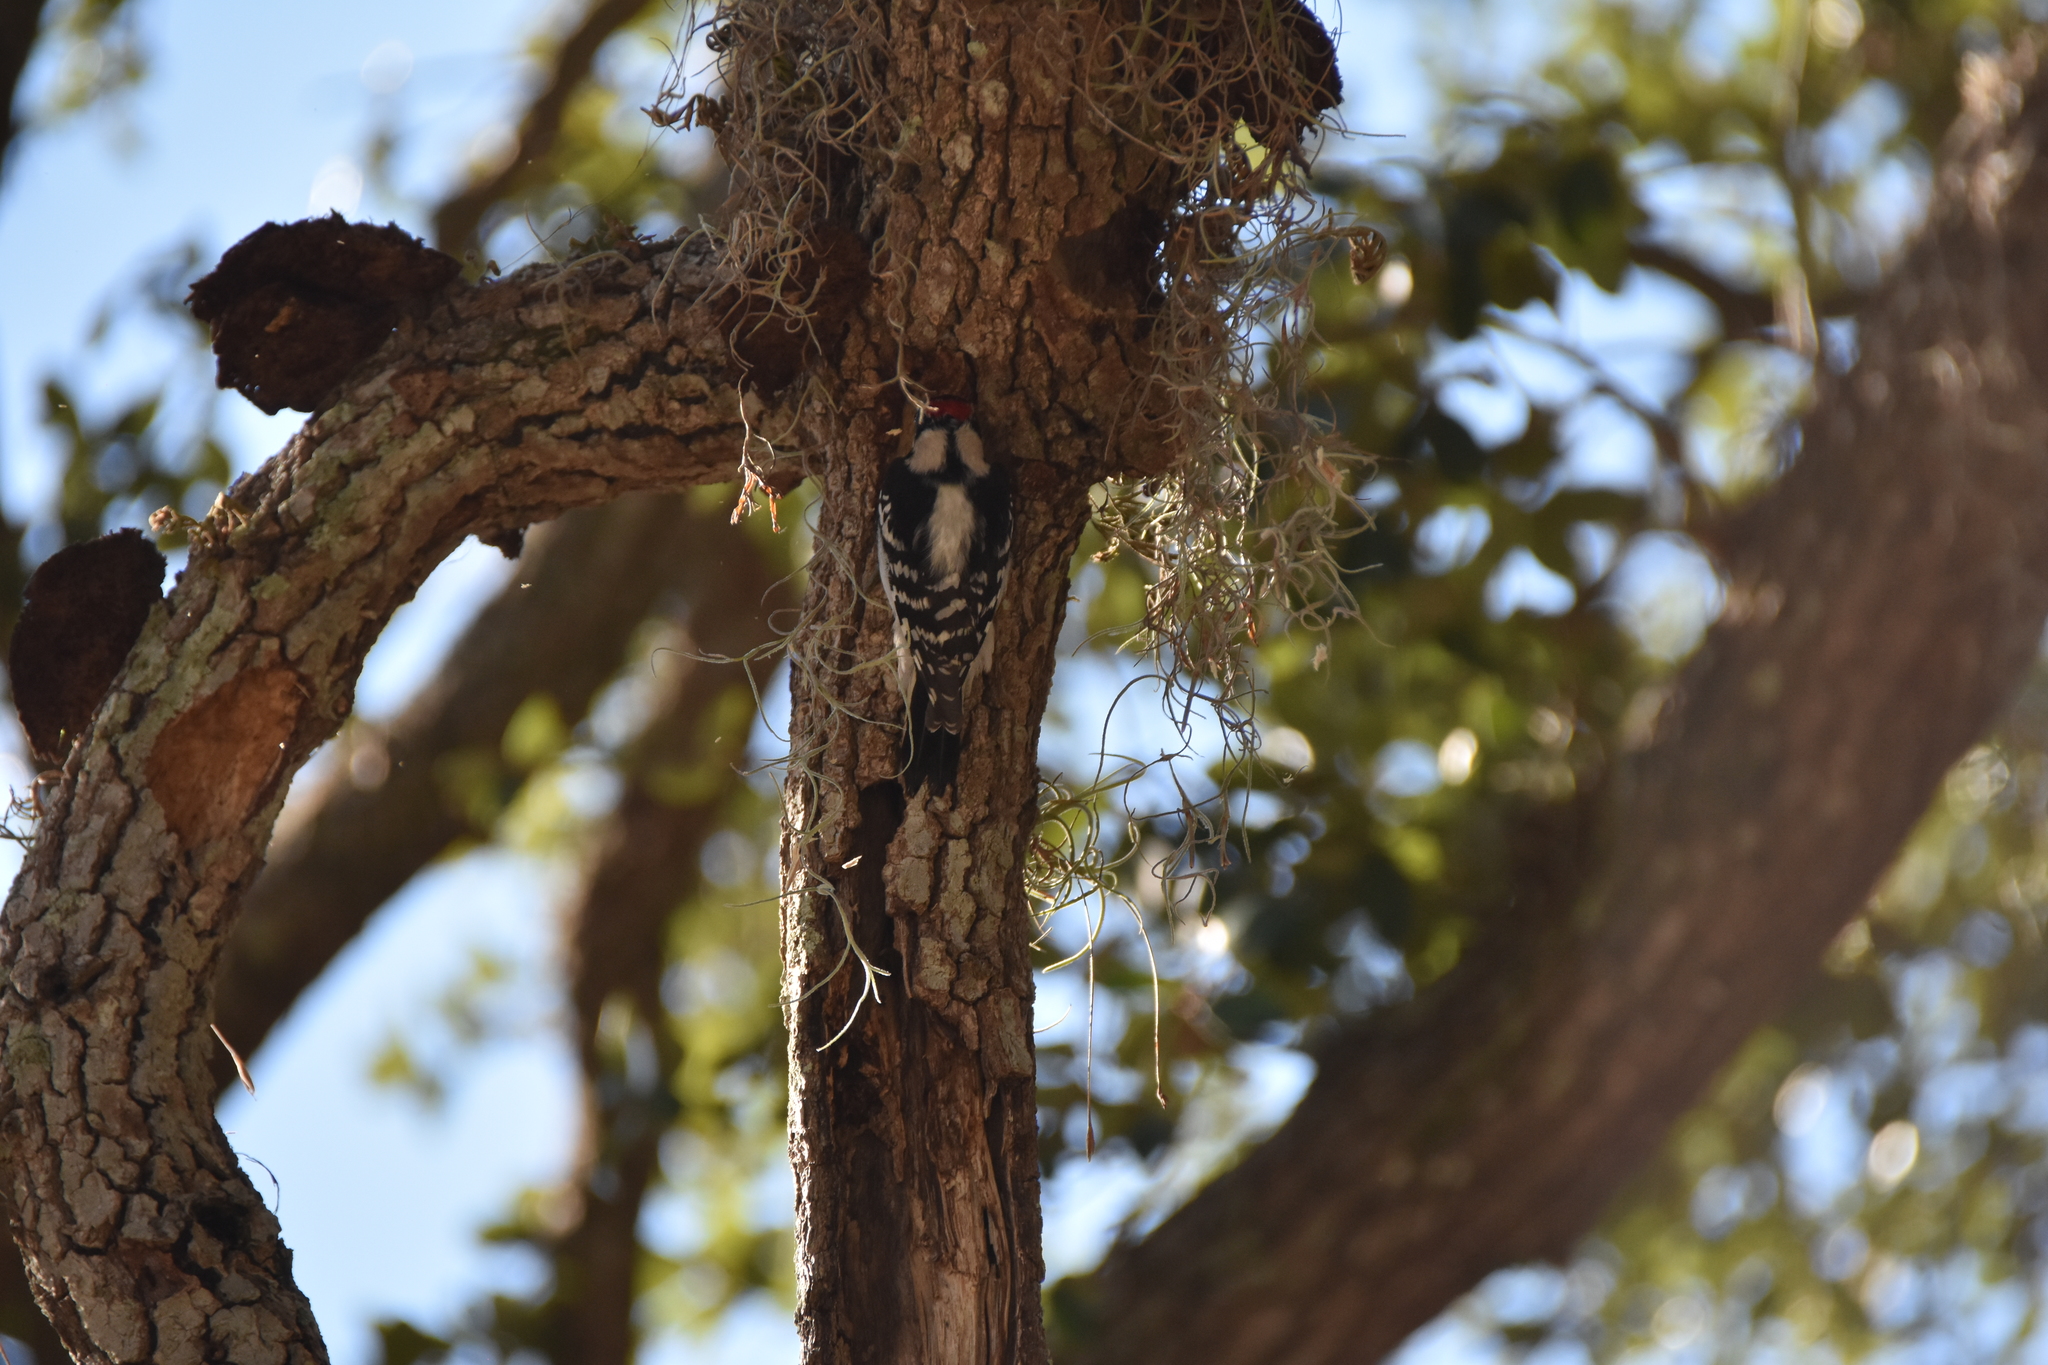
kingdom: Animalia
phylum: Chordata
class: Aves
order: Piciformes
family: Picidae
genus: Dryobates
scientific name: Dryobates pubescens
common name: Downy woodpecker
